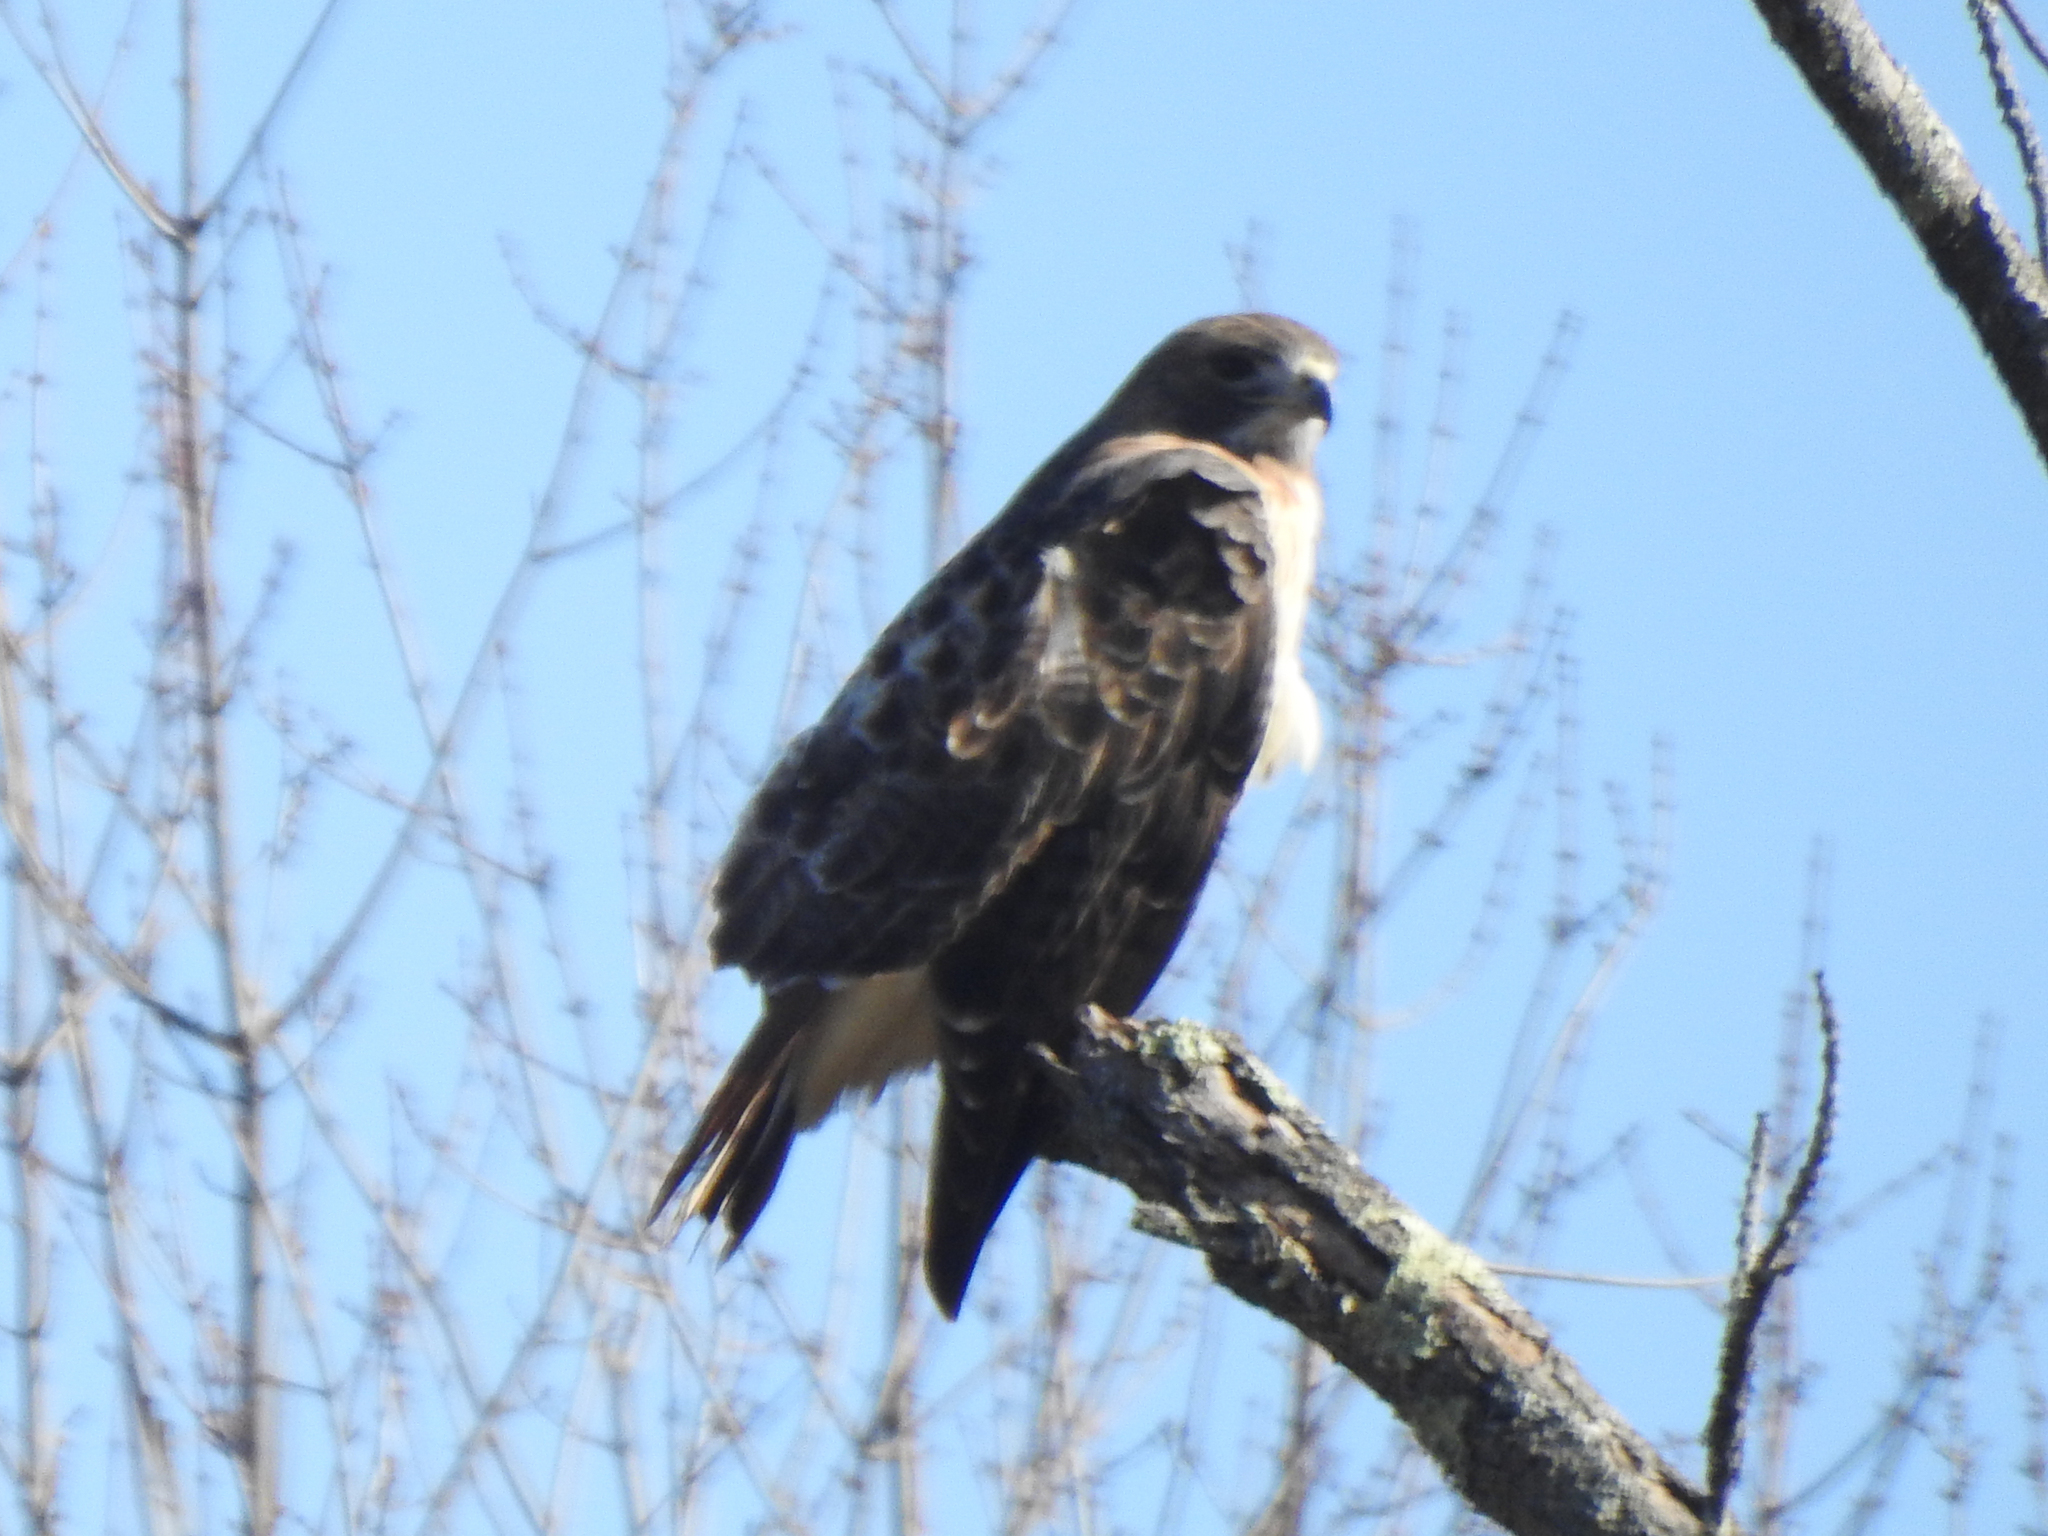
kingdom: Animalia
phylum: Chordata
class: Aves
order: Accipitriformes
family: Accipitridae
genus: Buteo
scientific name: Buteo jamaicensis
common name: Red-tailed hawk
